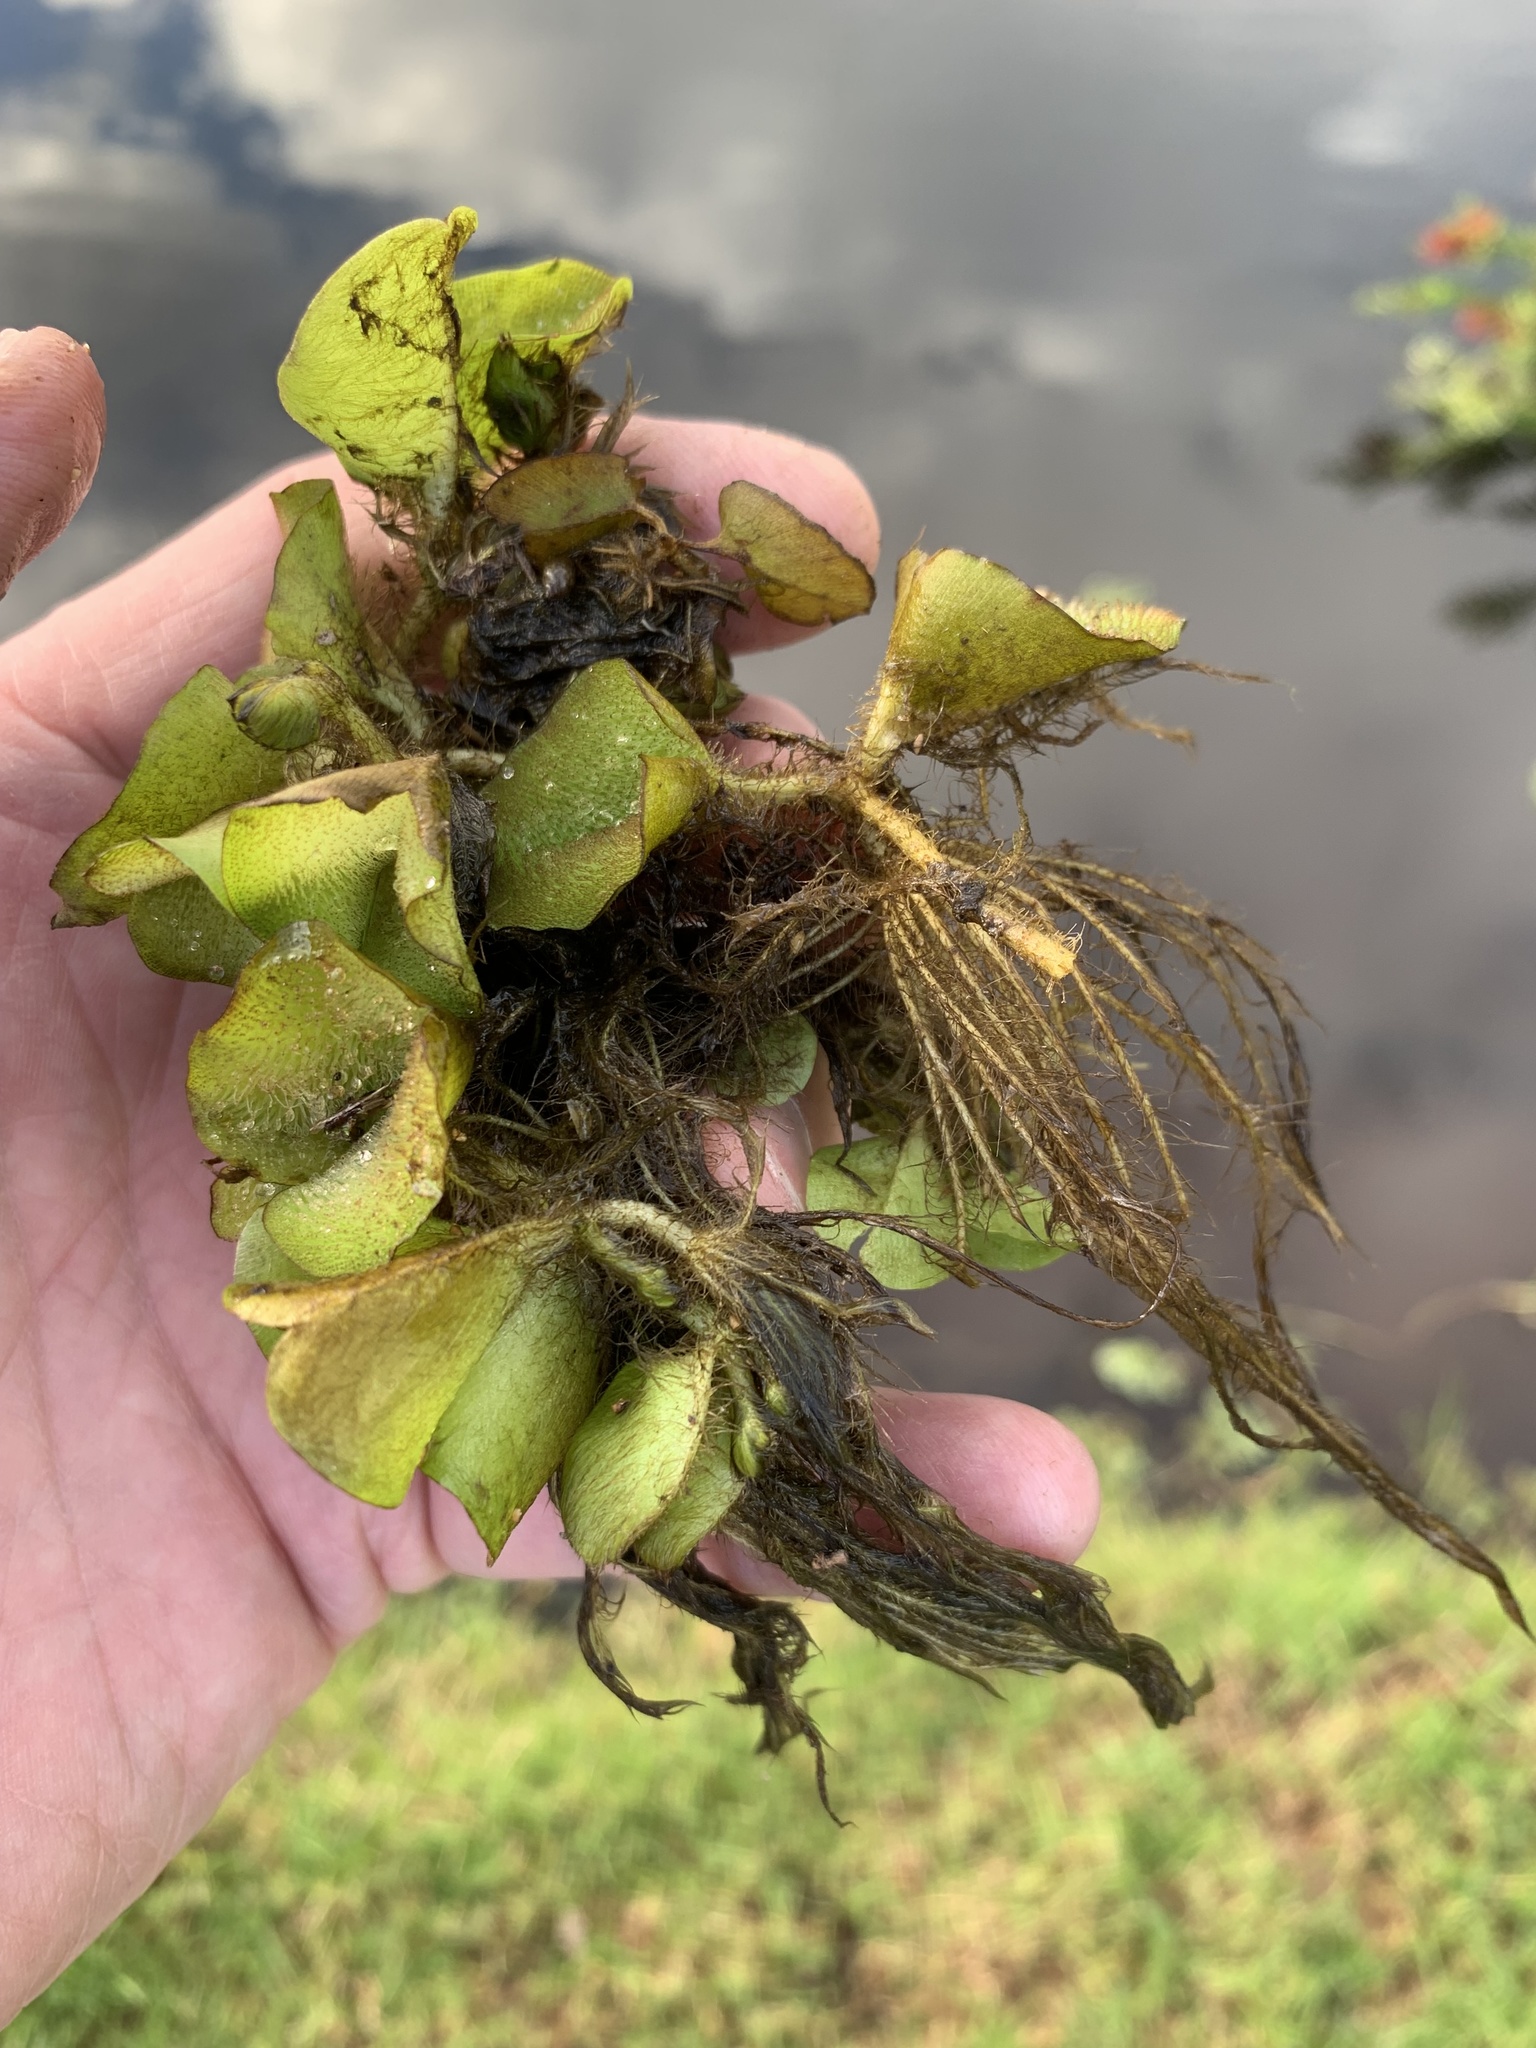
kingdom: Plantae
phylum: Tracheophyta
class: Polypodiopsida
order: Salviniales
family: Salviniaceae
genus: Salvinia
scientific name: Salvinia molesta
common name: Kariba weed
